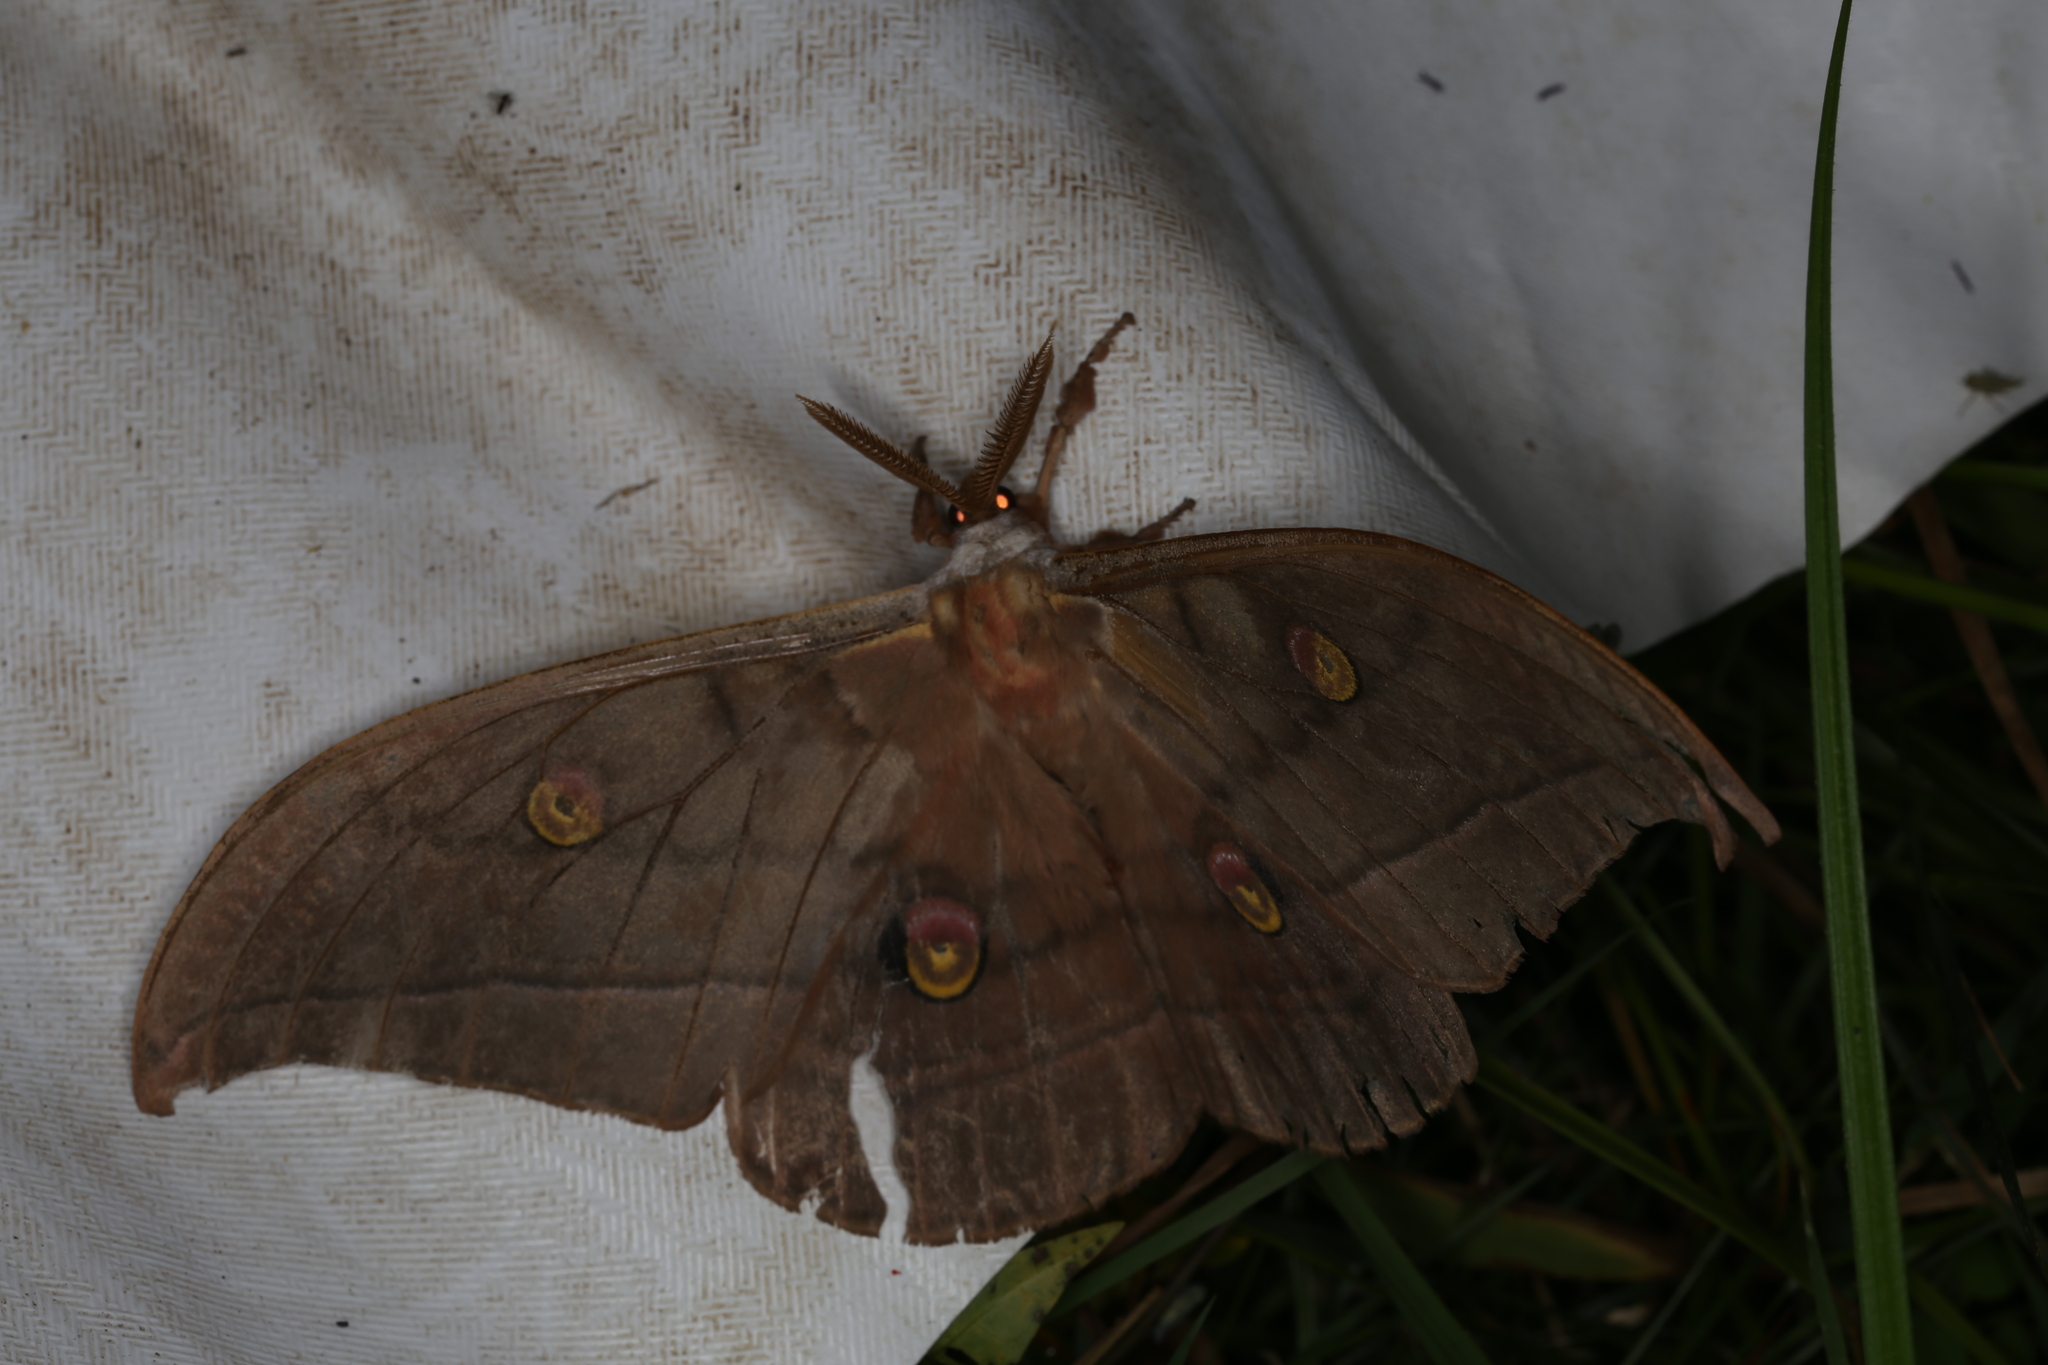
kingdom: Animalia
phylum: Arthropoda
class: Insecta
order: Lepidoptera
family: Saturniidae
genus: Antheraea
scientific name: Antheraea yamamai
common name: Japanese oak silk moth
